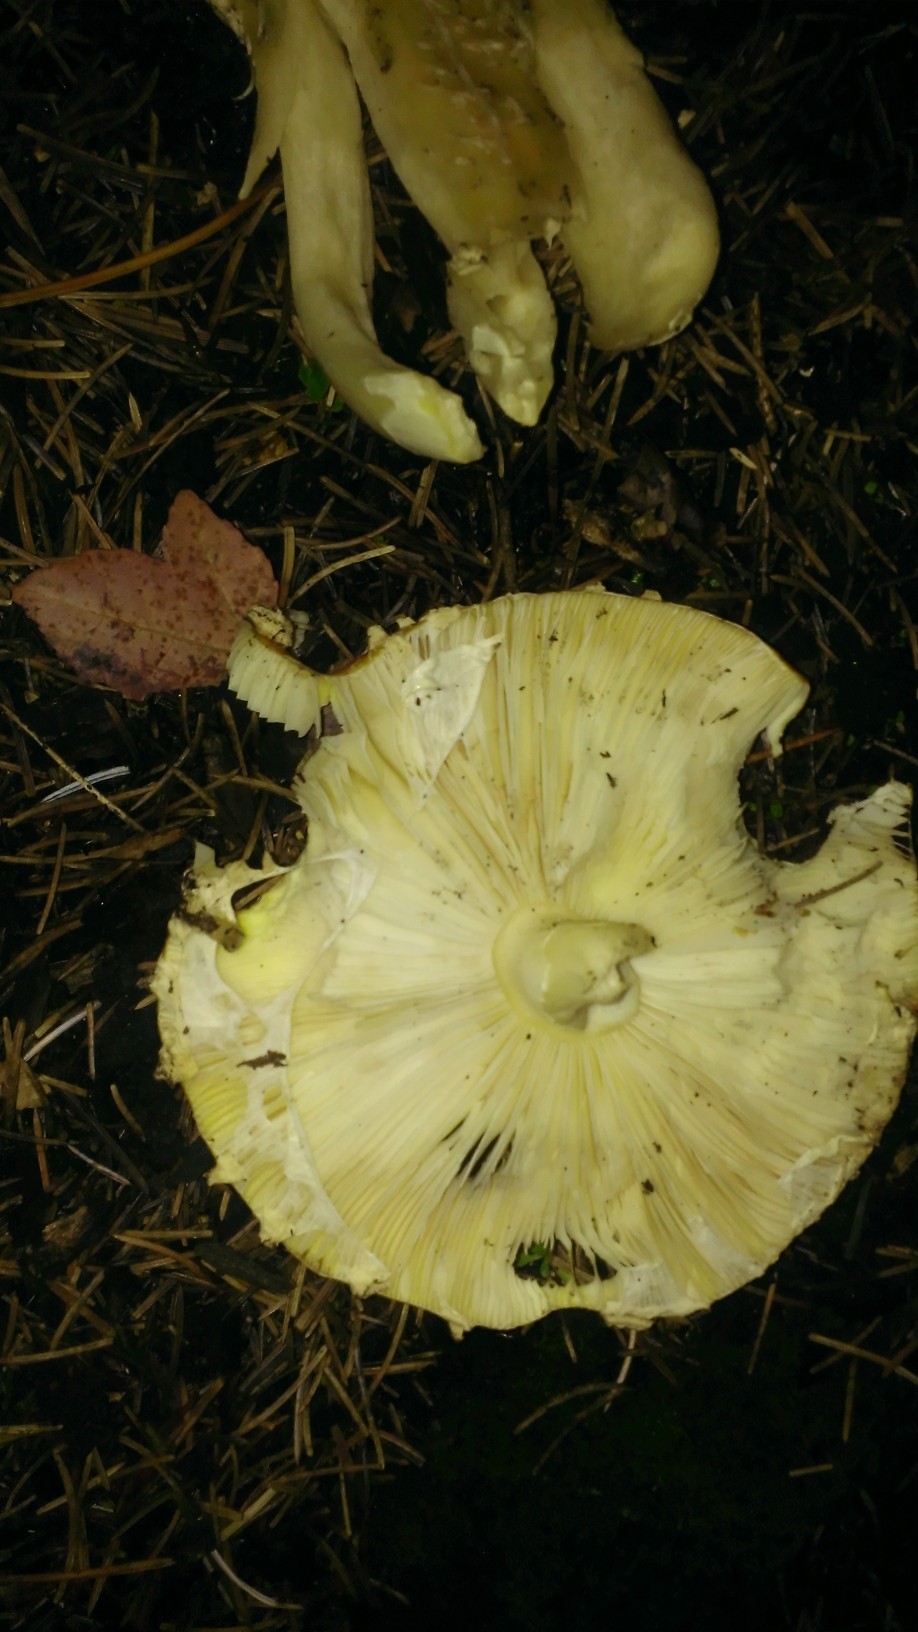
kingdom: Fungi
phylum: Basidiomycota
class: Agaricomycetes
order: Agaricales
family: Amanitaceae
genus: Amanita
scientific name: Amanita muscaria
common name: Fly agaric
